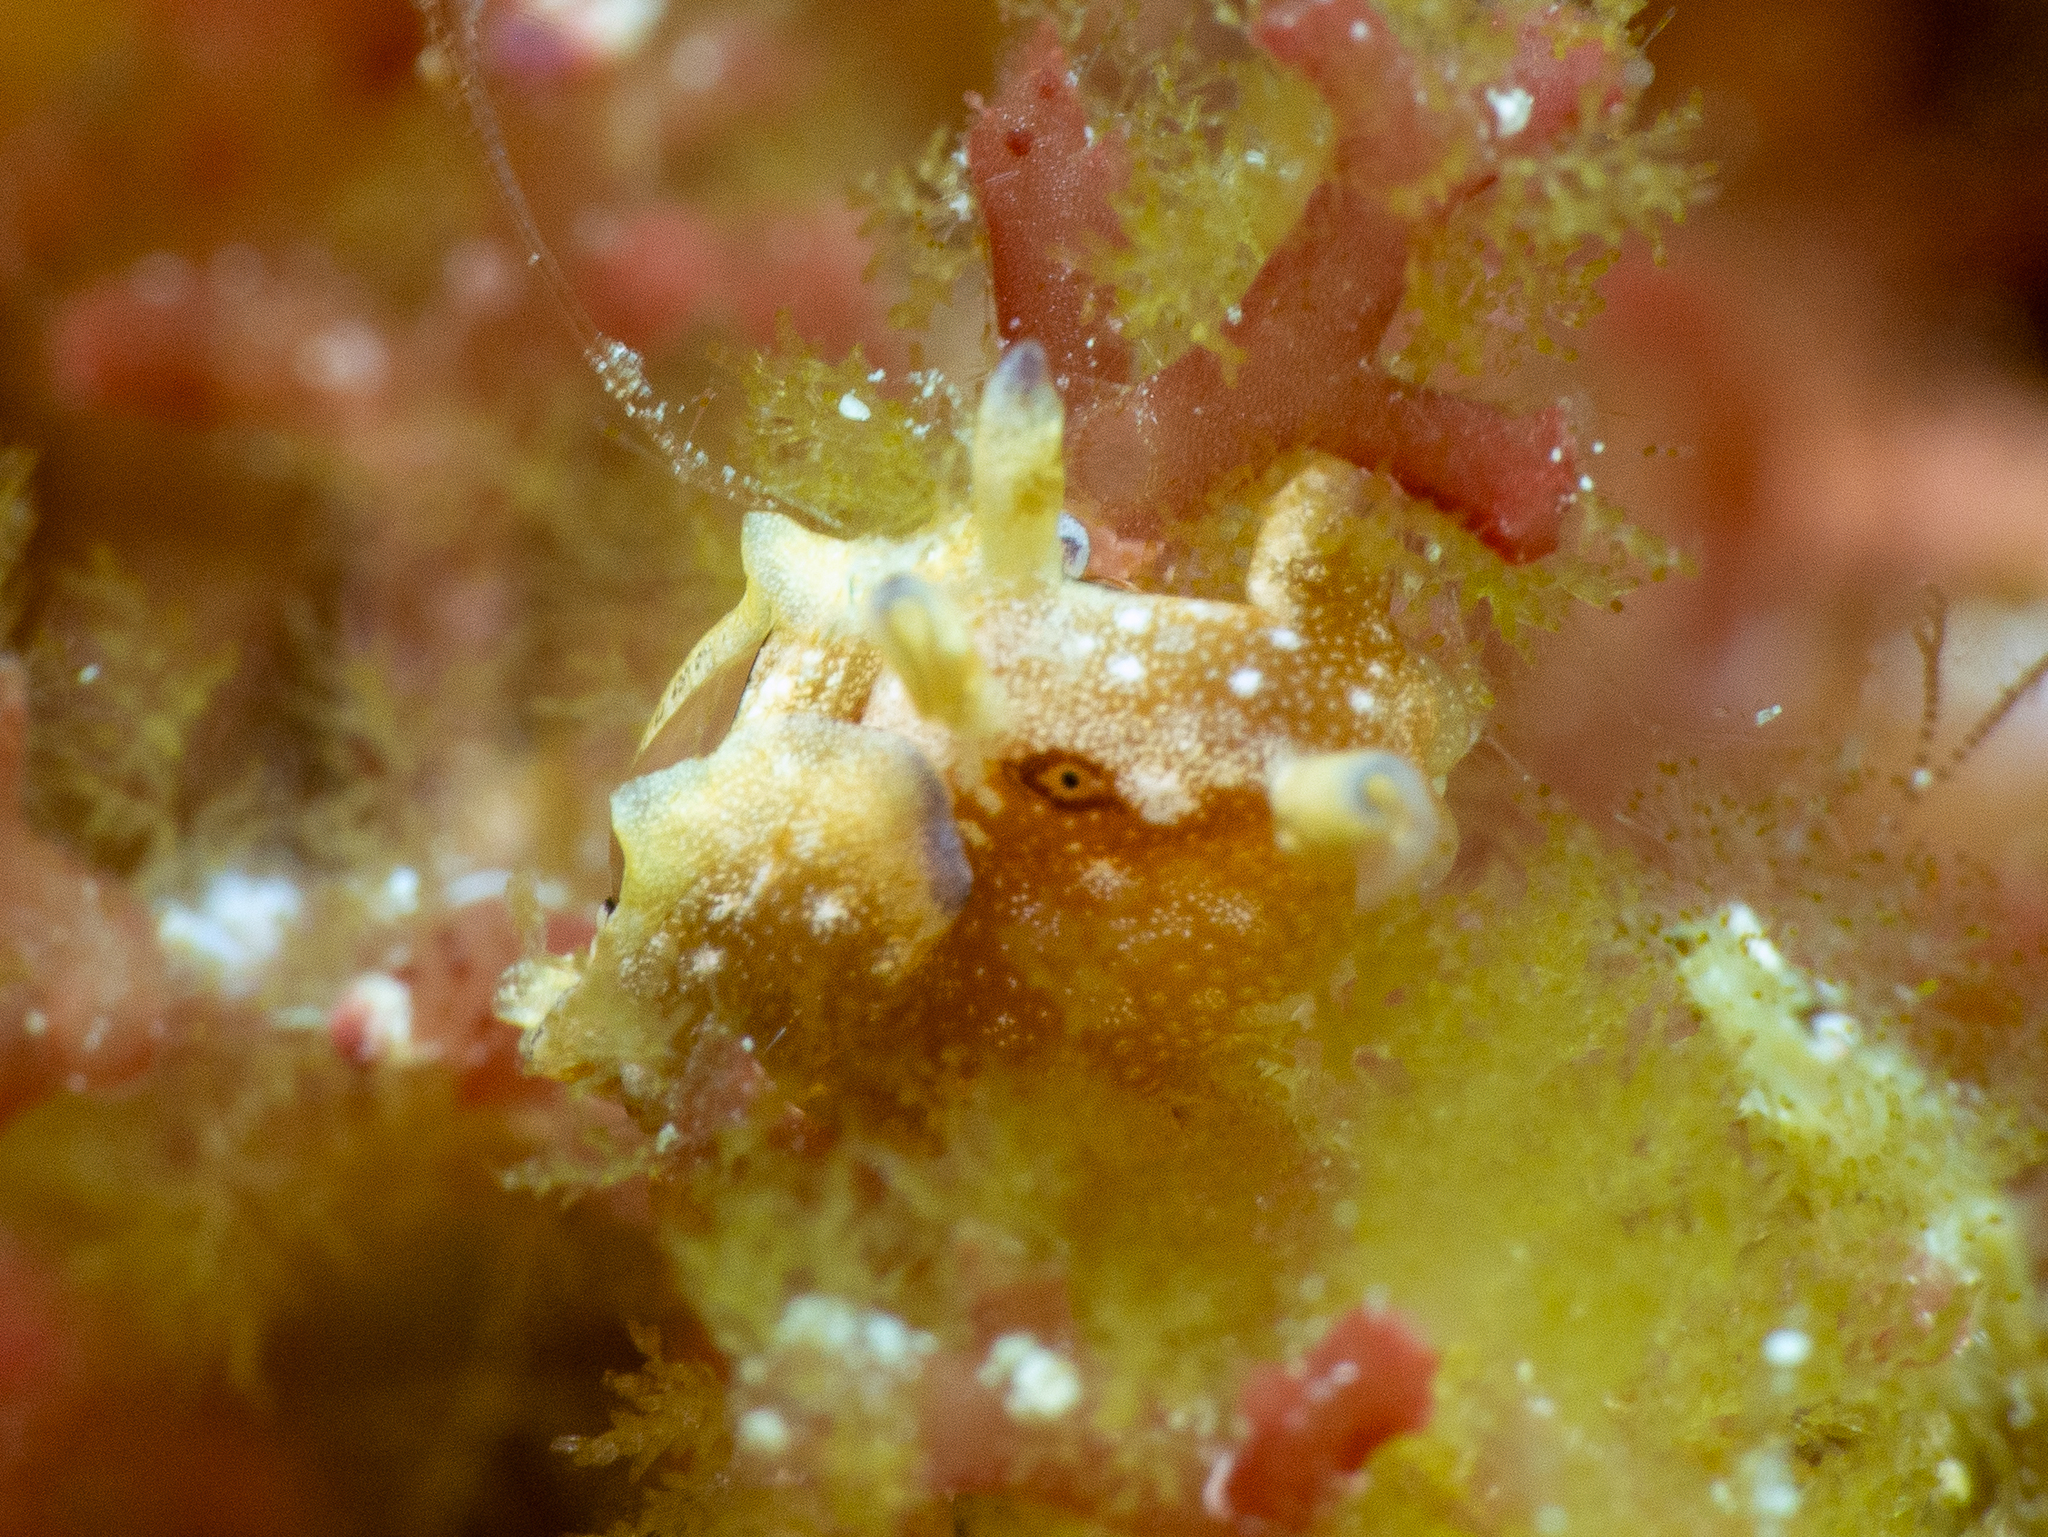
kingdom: Animalia
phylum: Mollusca
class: Gastropoda
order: Aplysiida
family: Aplysiidae
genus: Aplysia
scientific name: Aplysia parvula
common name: Dwarf sea hare
